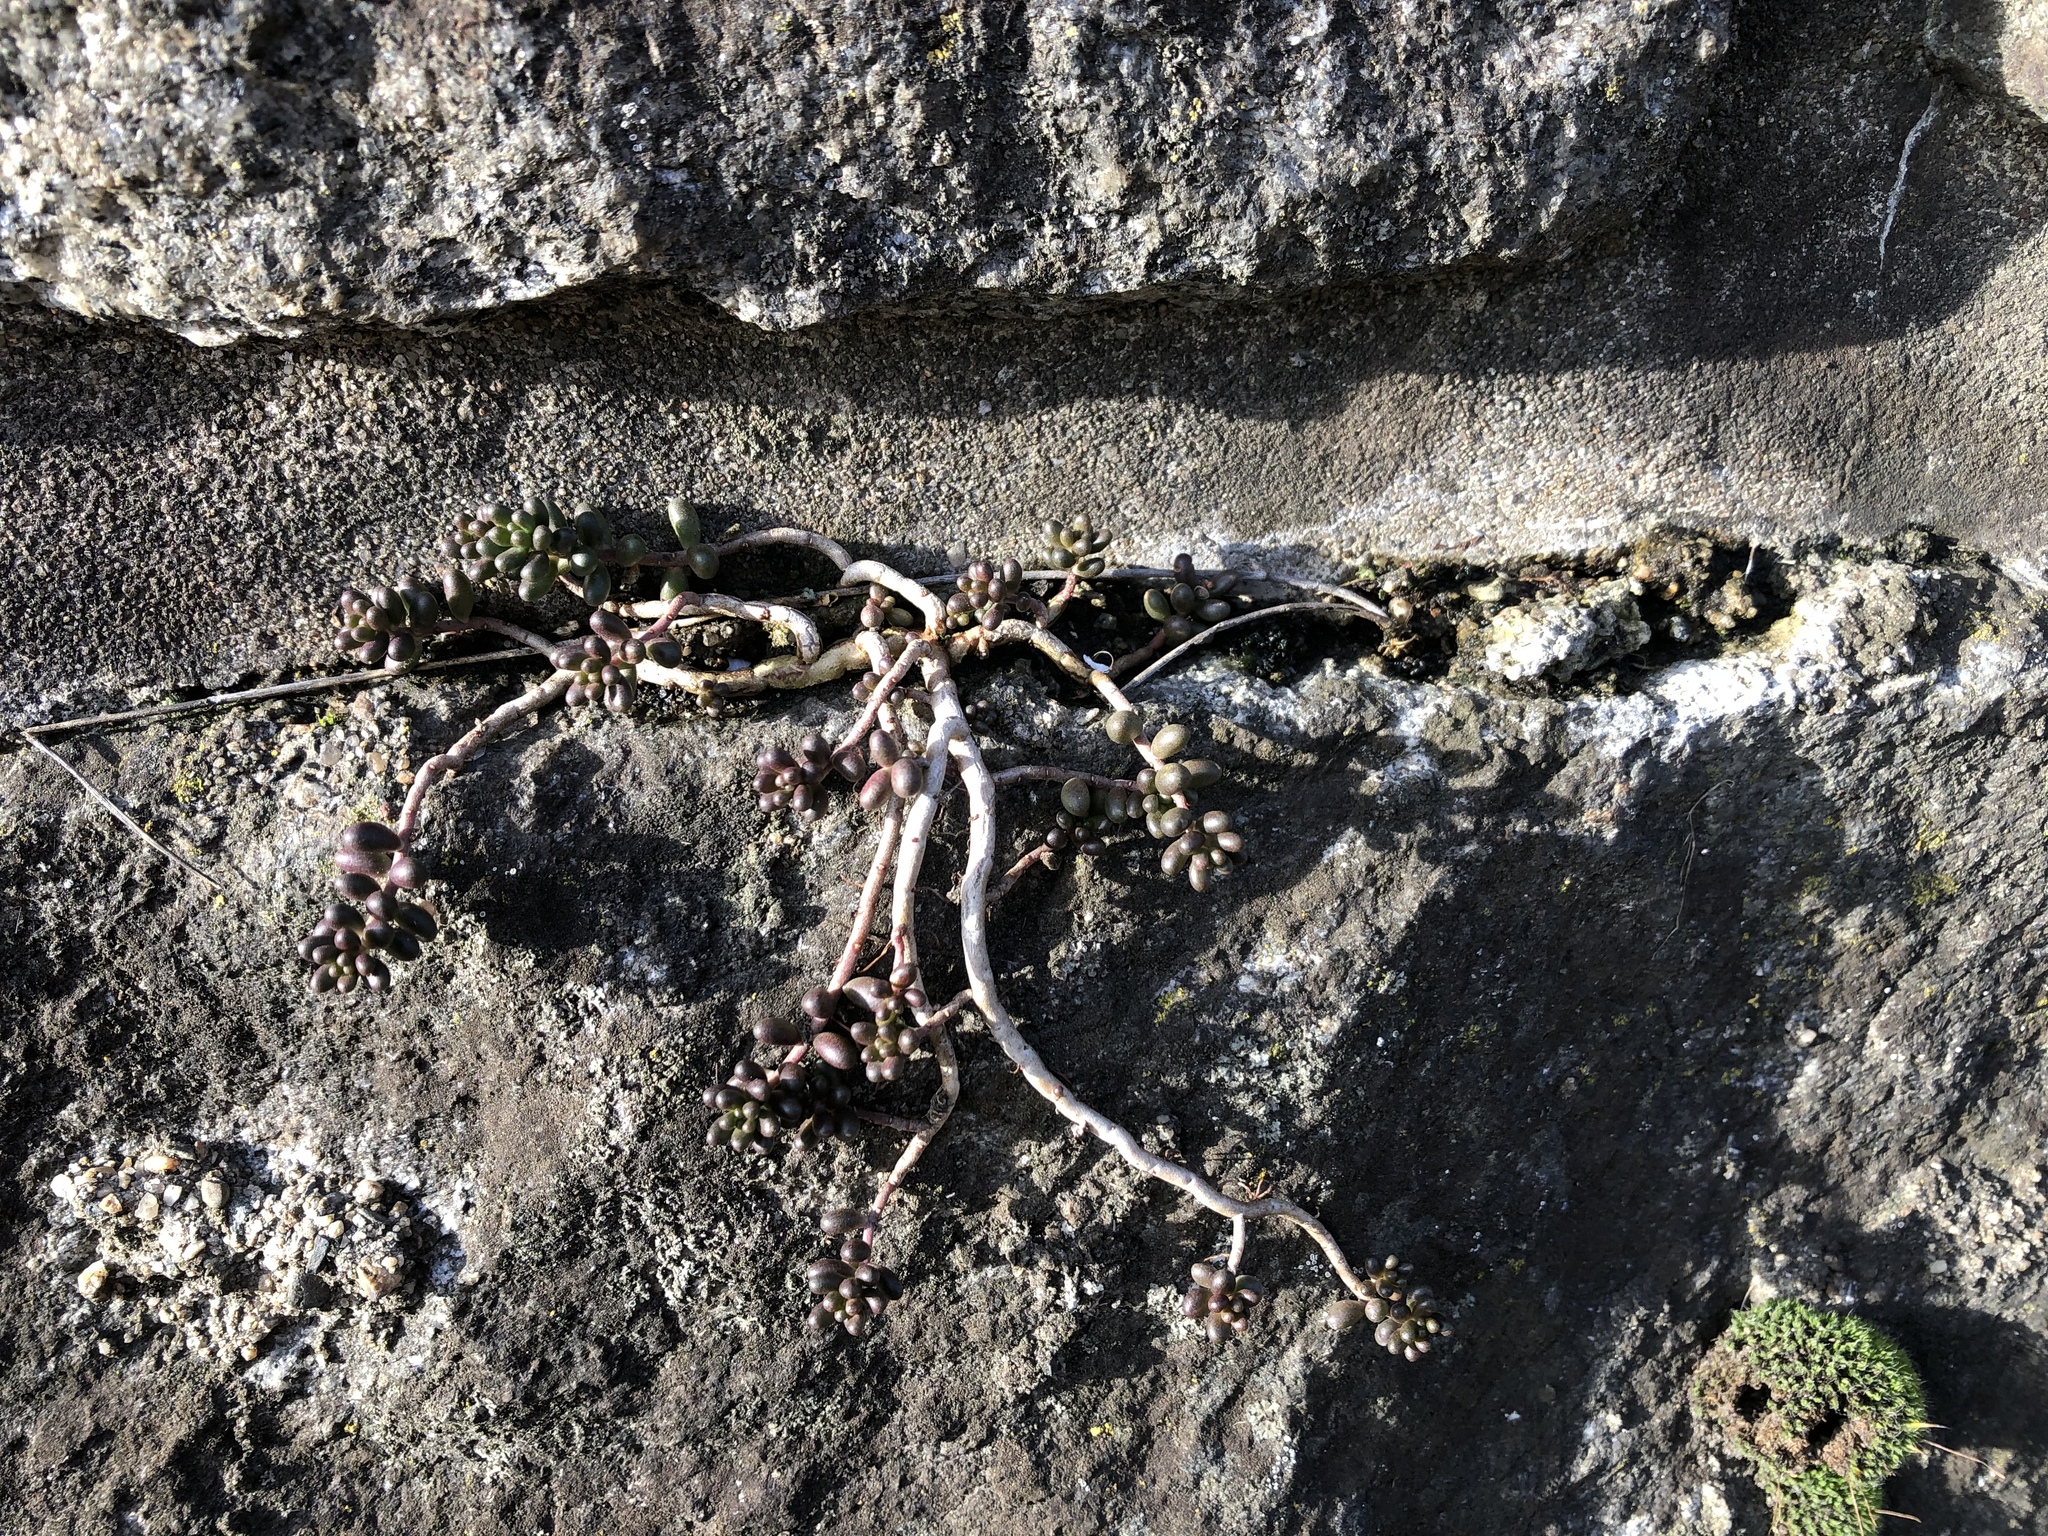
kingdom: Plantae
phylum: Tracheophyta
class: Magnoliopsida
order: Saxifragales
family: Crassulaceae
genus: Sedum
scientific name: Sedum album
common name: White stonecrop
